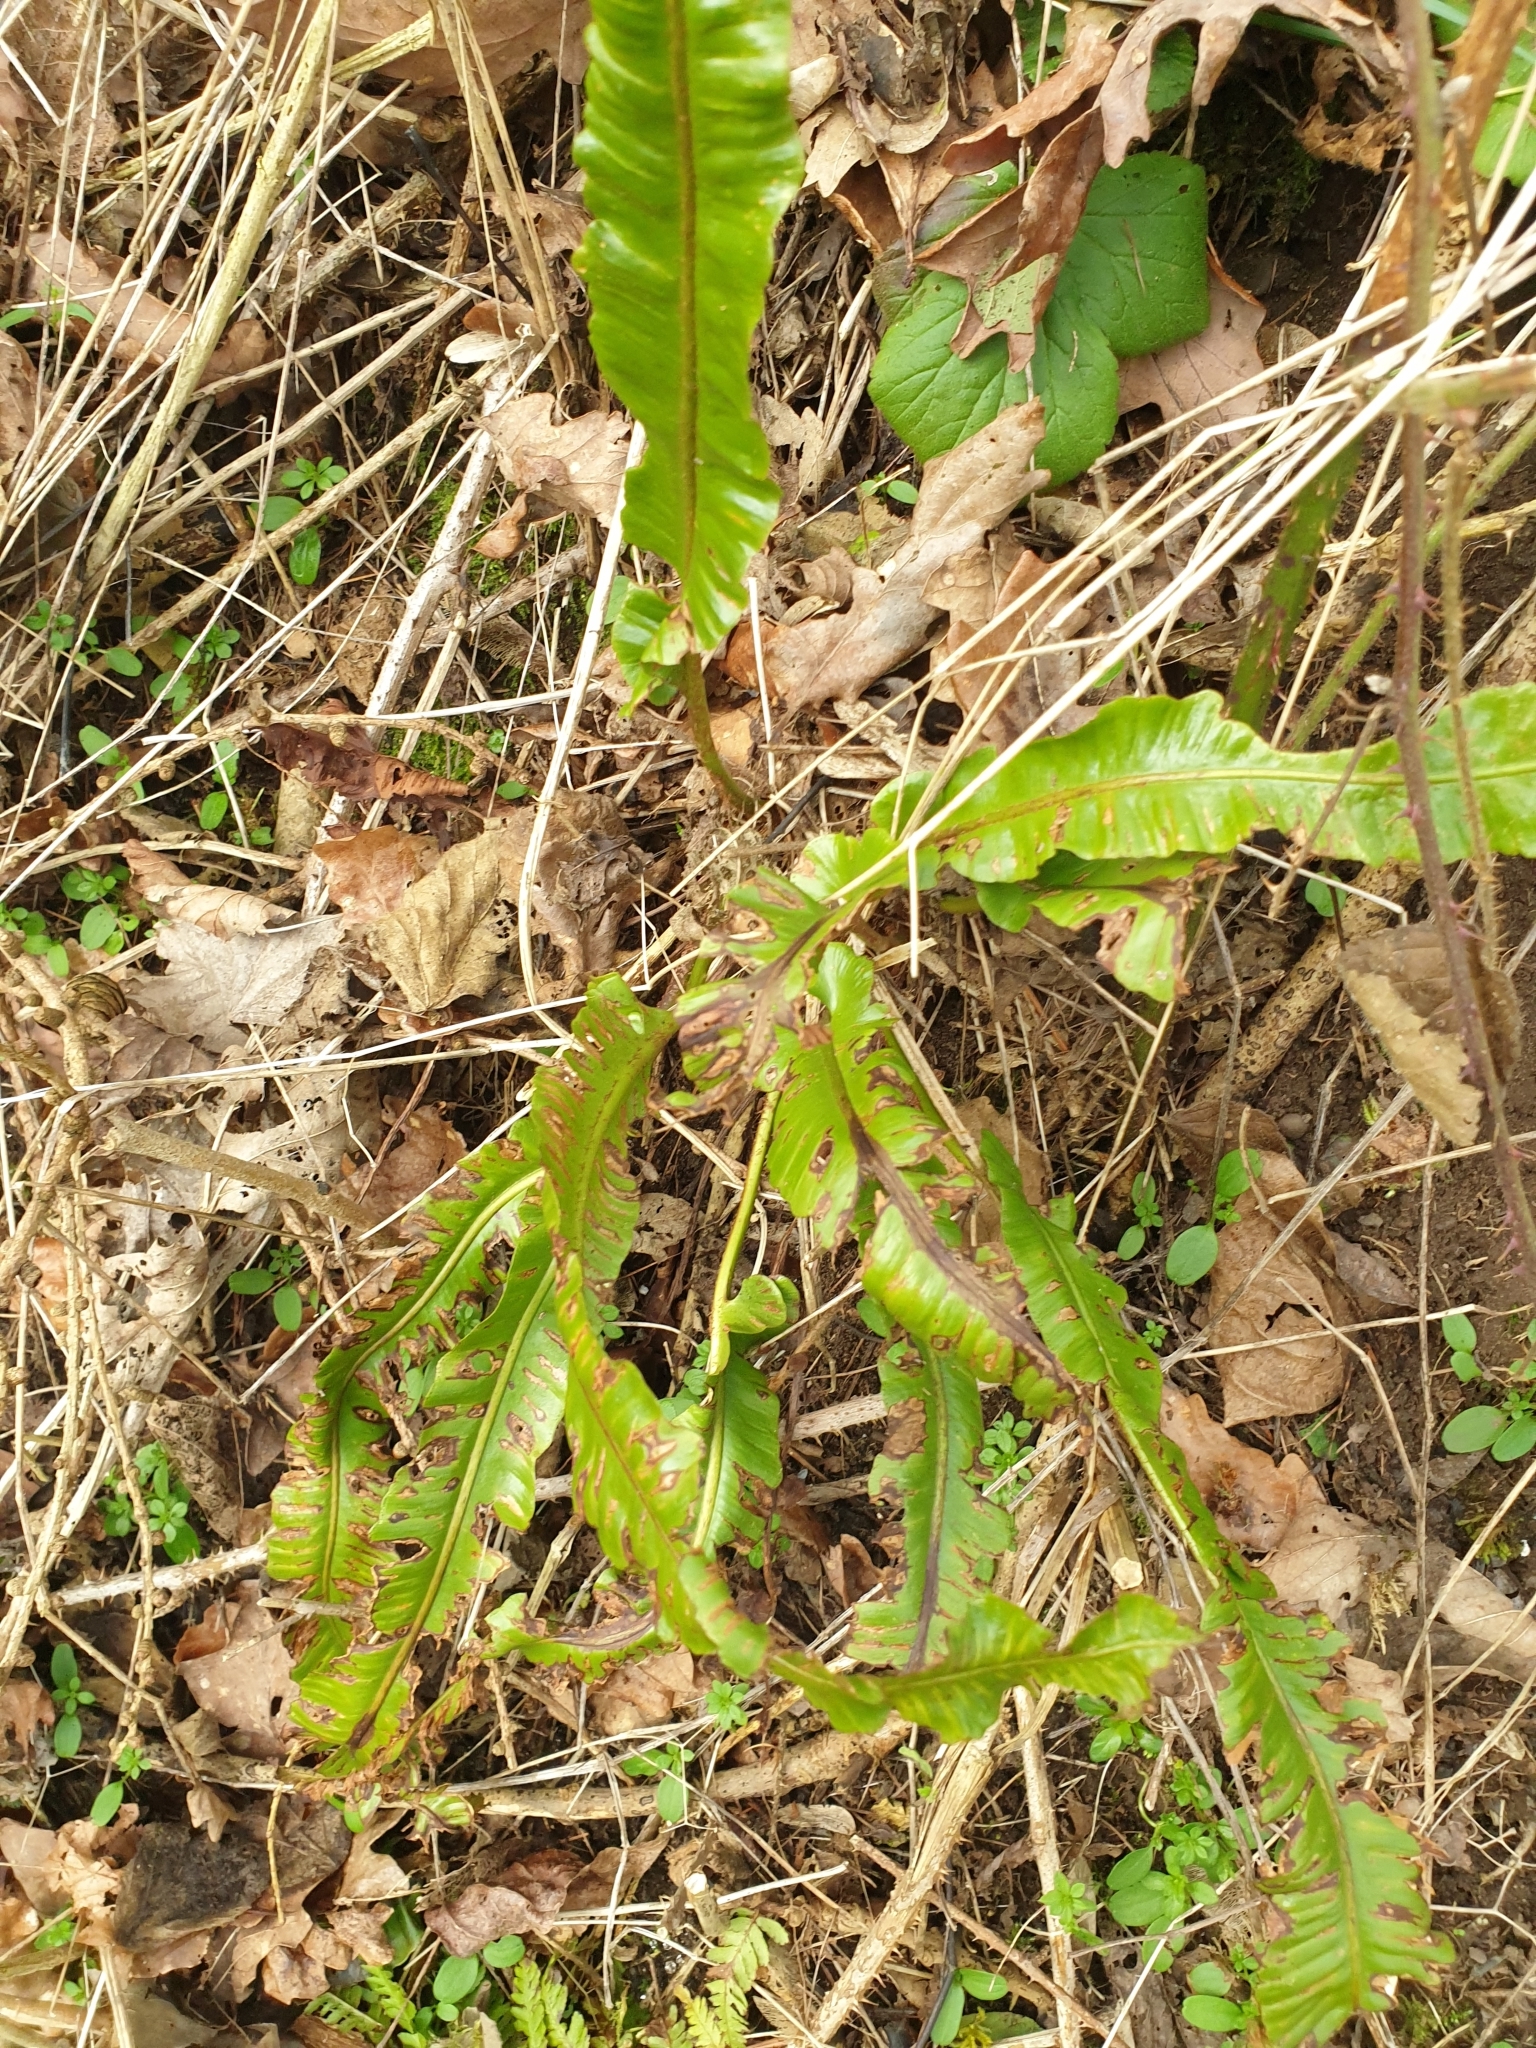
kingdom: Plantae
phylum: Tracheophyta
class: Polypodiopsida
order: Polypodiales
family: Aspleniaceae
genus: Asplenium
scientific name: Asplenium scolopendrium
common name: Hart's-tongue fern
